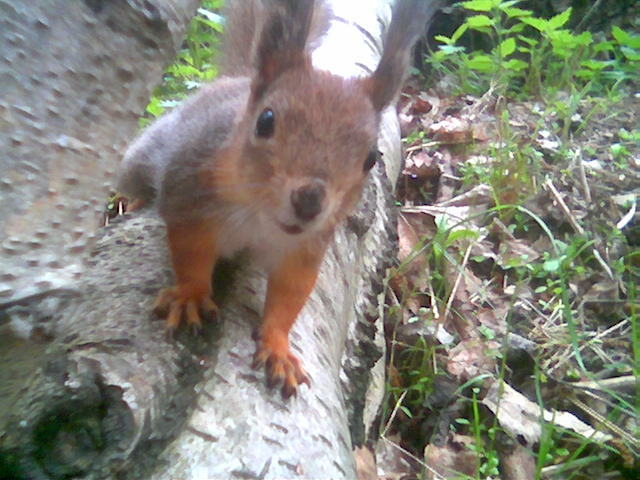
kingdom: Animalia
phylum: Chordata
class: Mammalia
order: Rodentia
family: Sciuridae
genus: Sciurus
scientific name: Sciurus vulgaris
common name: Eurasian red squirrel
